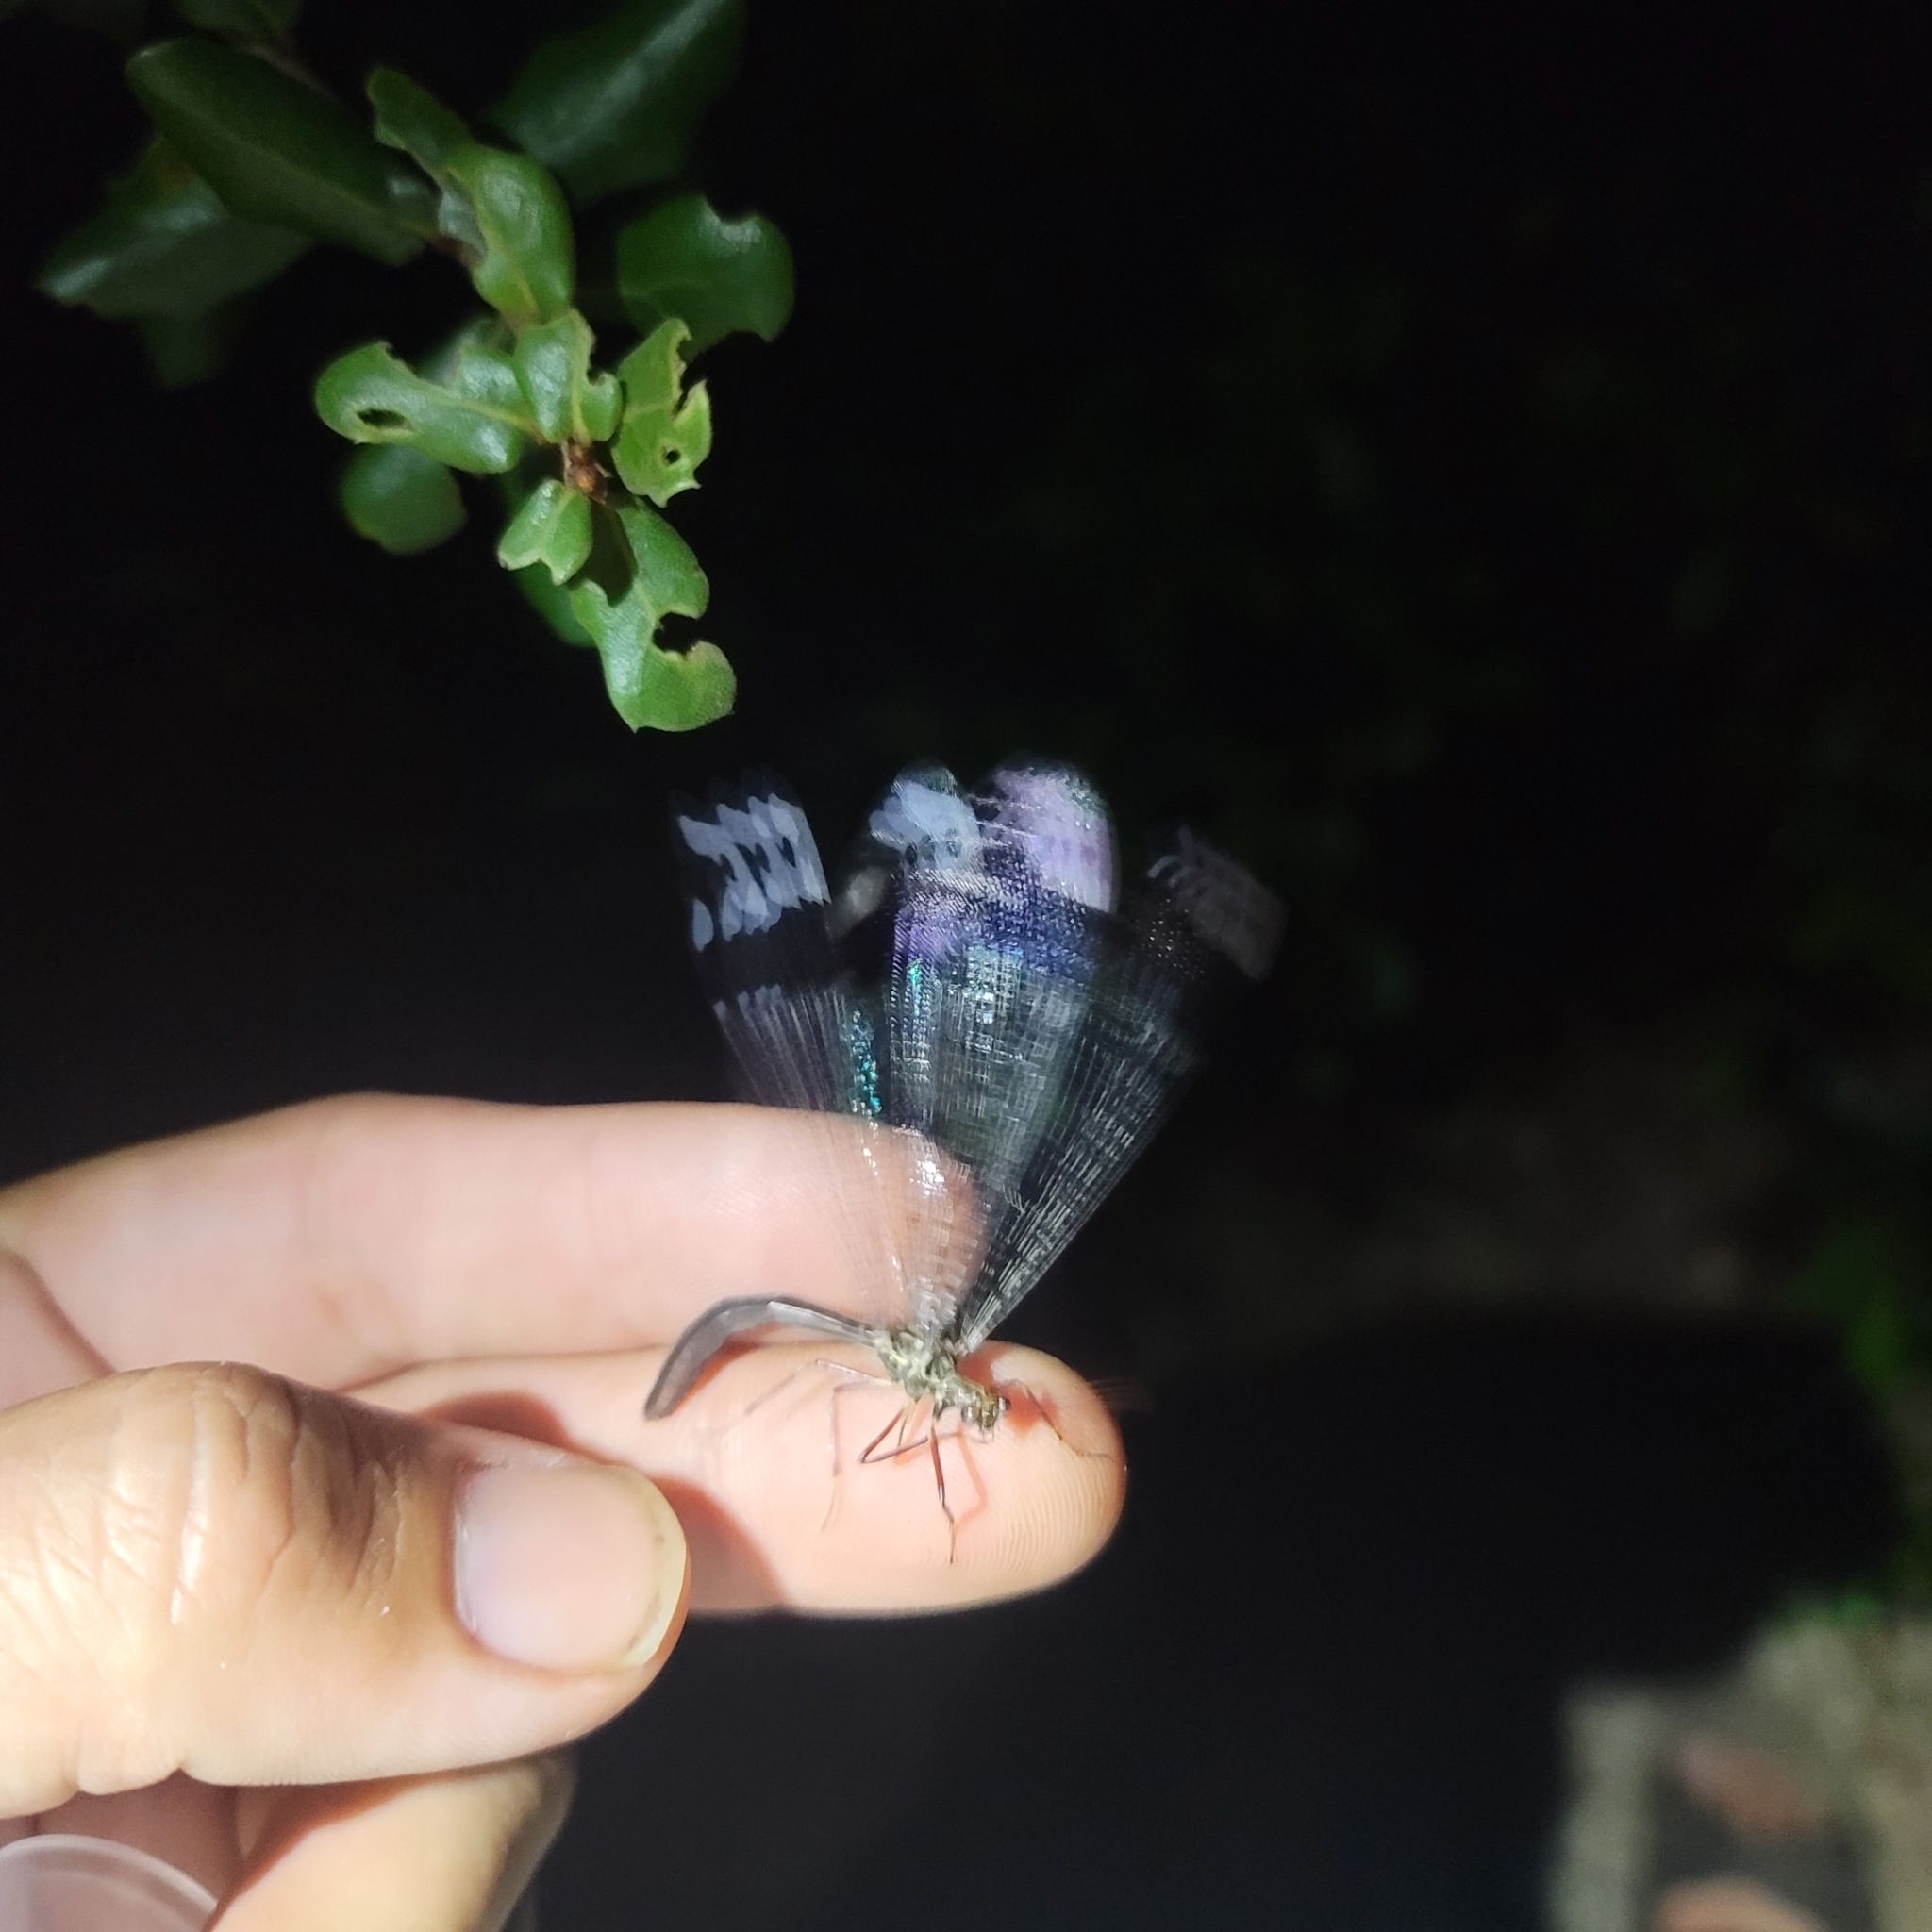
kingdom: Animalia
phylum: Arthropoda
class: Insecta
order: Neuroptera
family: Myrmeleontidae
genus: Glenurus
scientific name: Glenurus gratus
